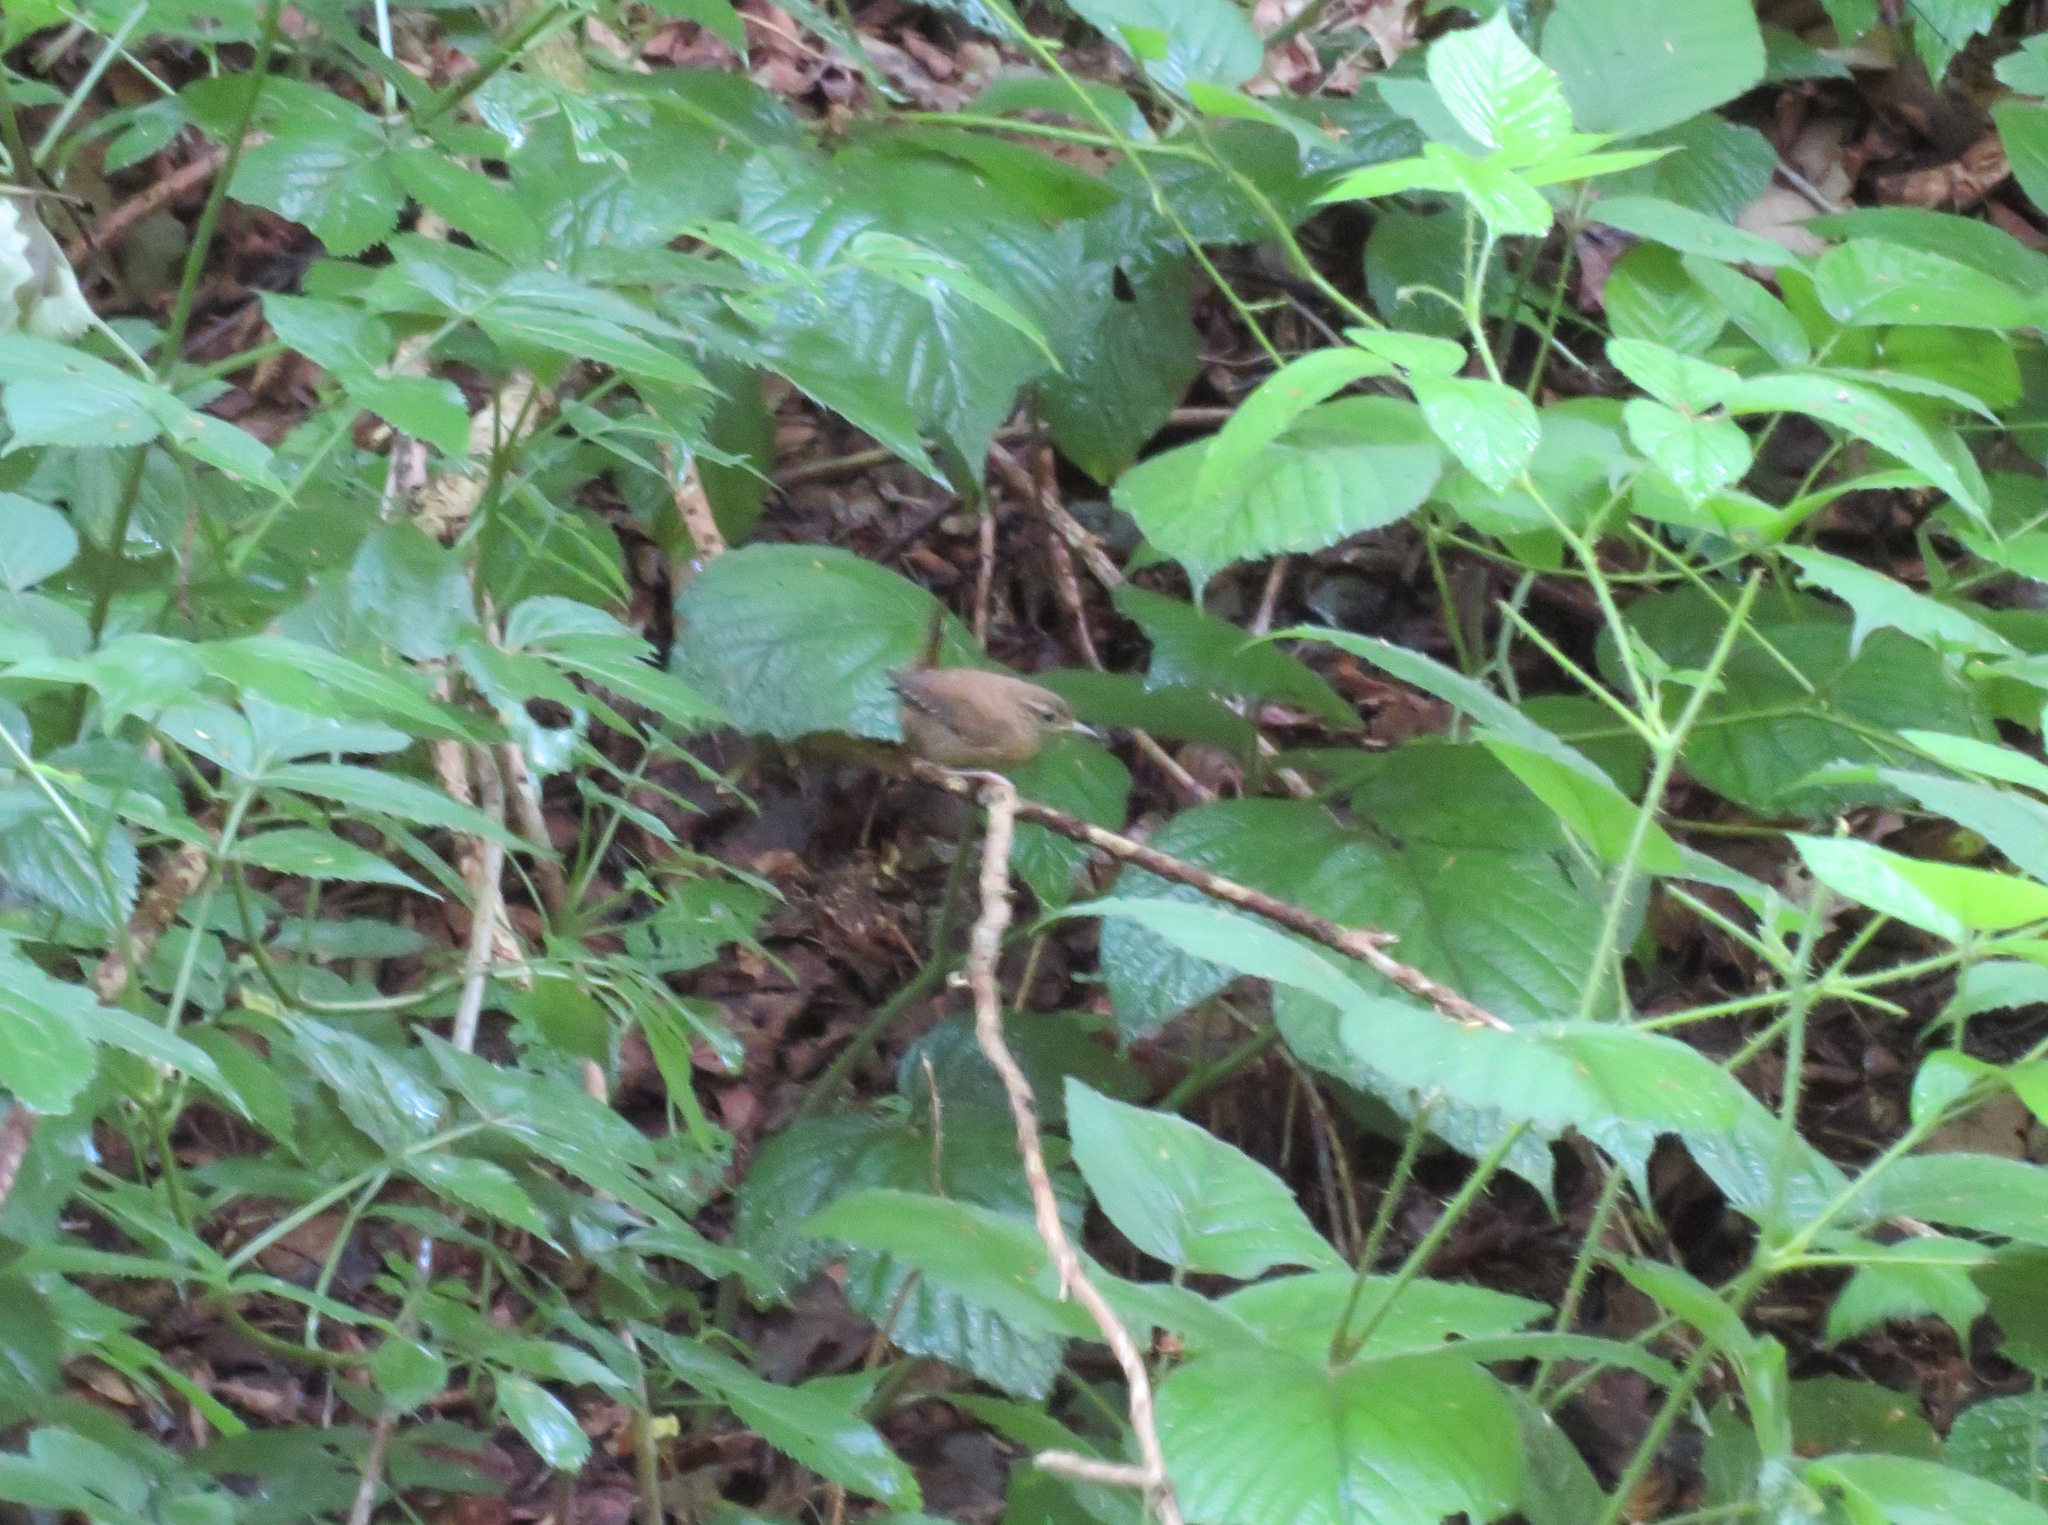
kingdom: Animalia
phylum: Chordata
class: Aves
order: Passeriformes
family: Troglodytidae
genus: Troglodytes
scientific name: Troglodytes troglodytes
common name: Eurasian wren
